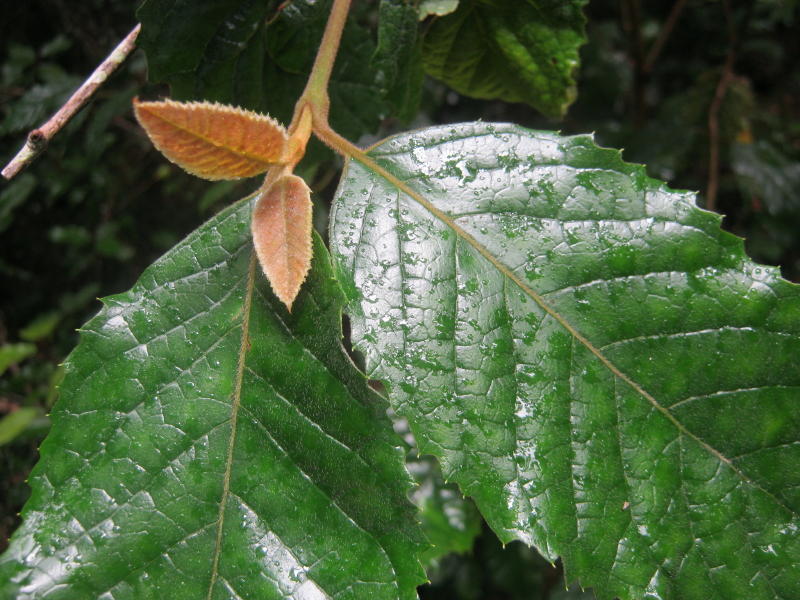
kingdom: Plantae
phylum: Tracheophyta
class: Magnoliopsida
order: Cornales
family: Curtisiaceae
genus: Curtisia
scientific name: Curtisia dentata
